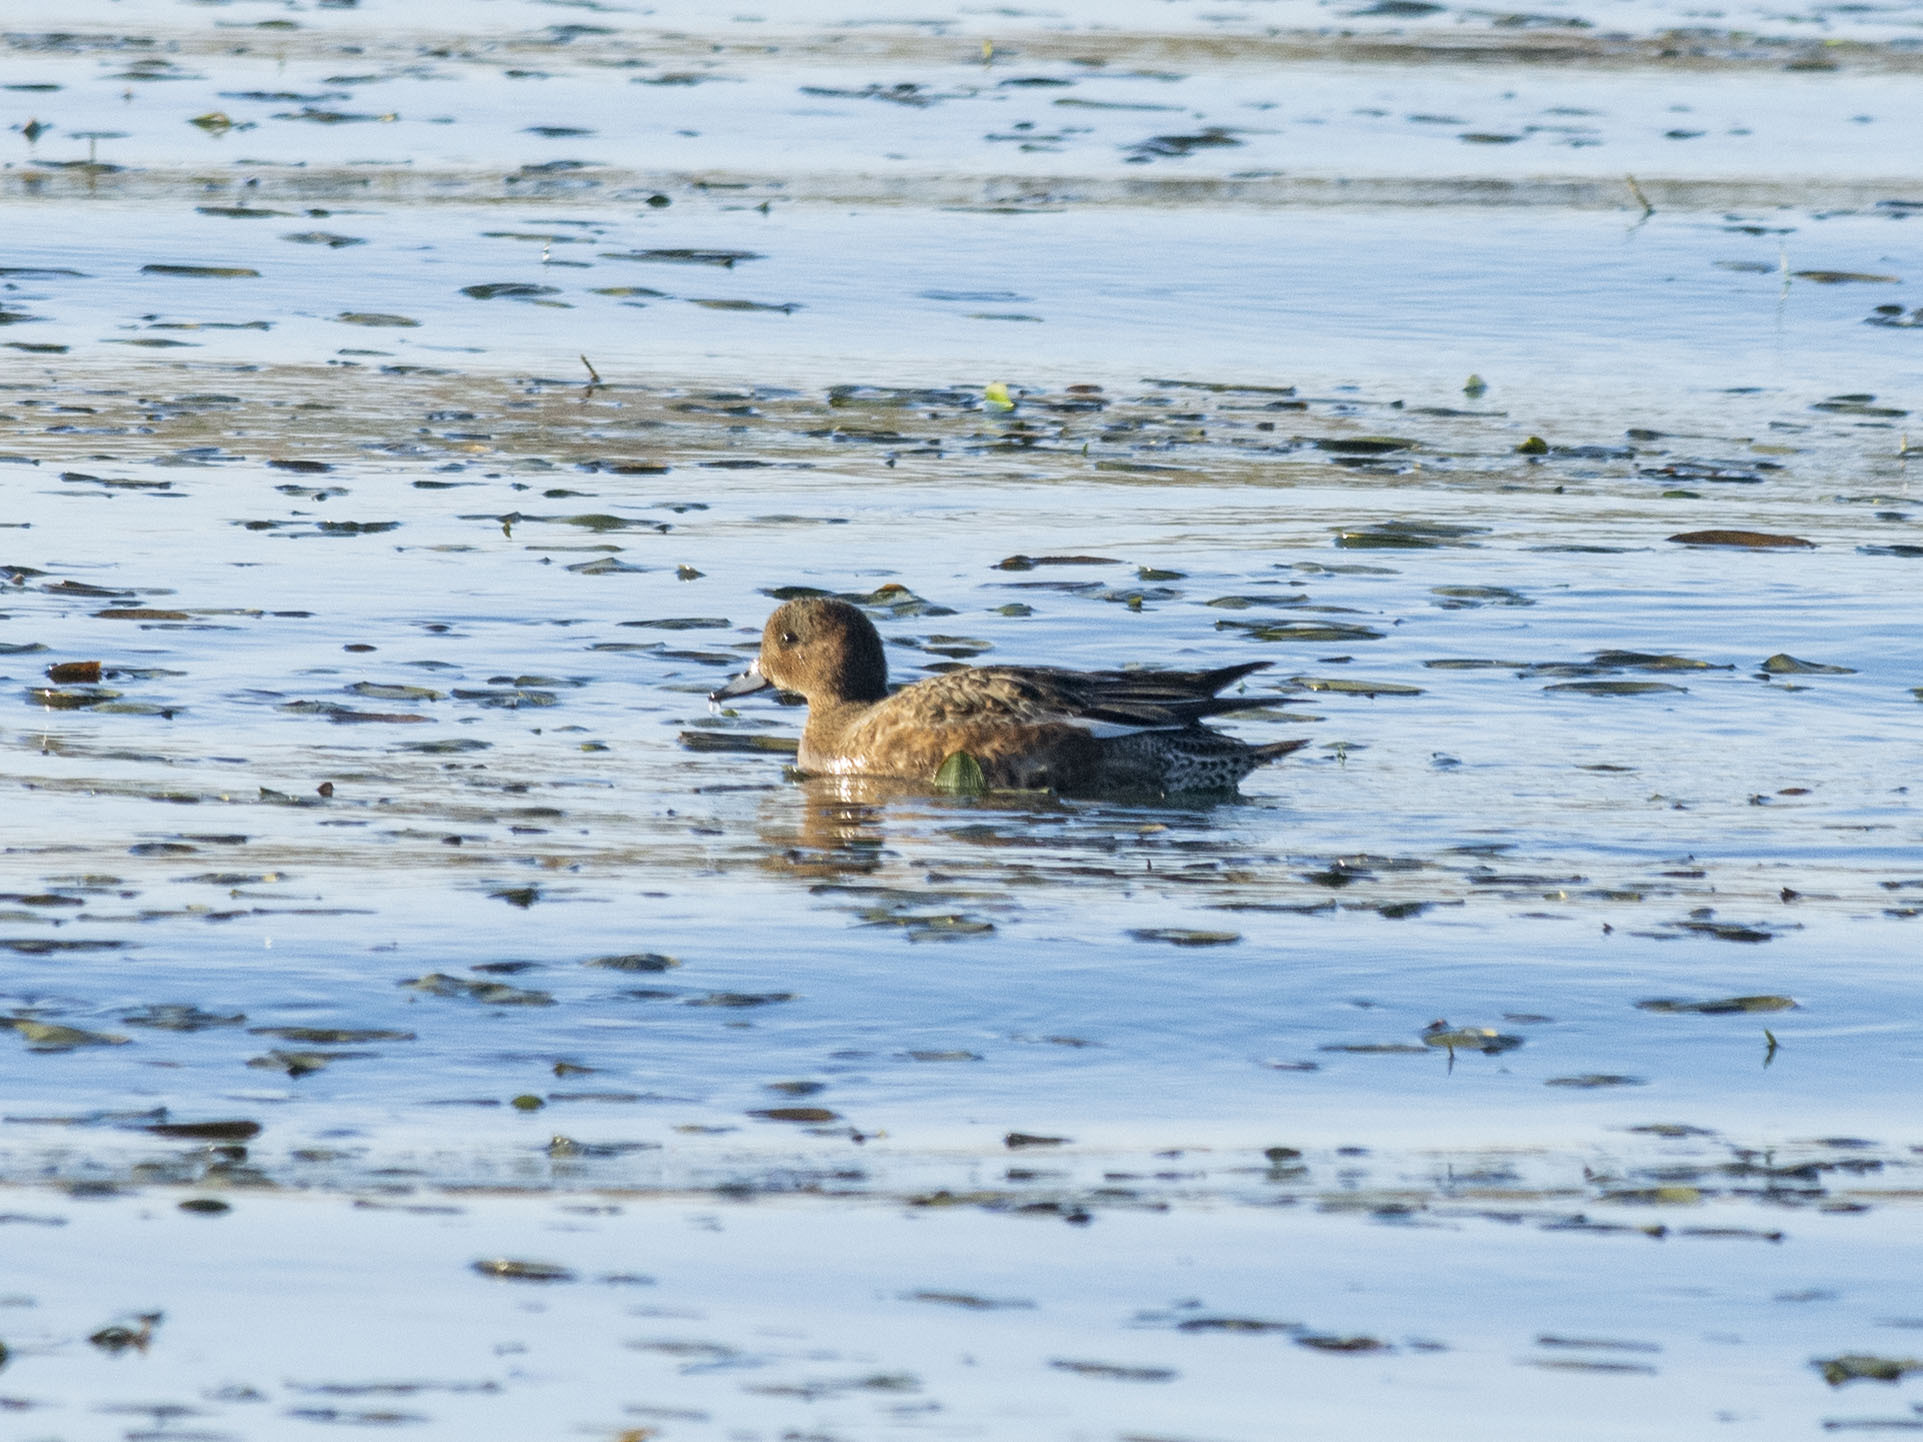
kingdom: Animalia
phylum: Chordata
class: Aves
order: Anseriformes
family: Anatidae
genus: Mareca
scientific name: Mareca penelope
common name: Eurasian wigeon
